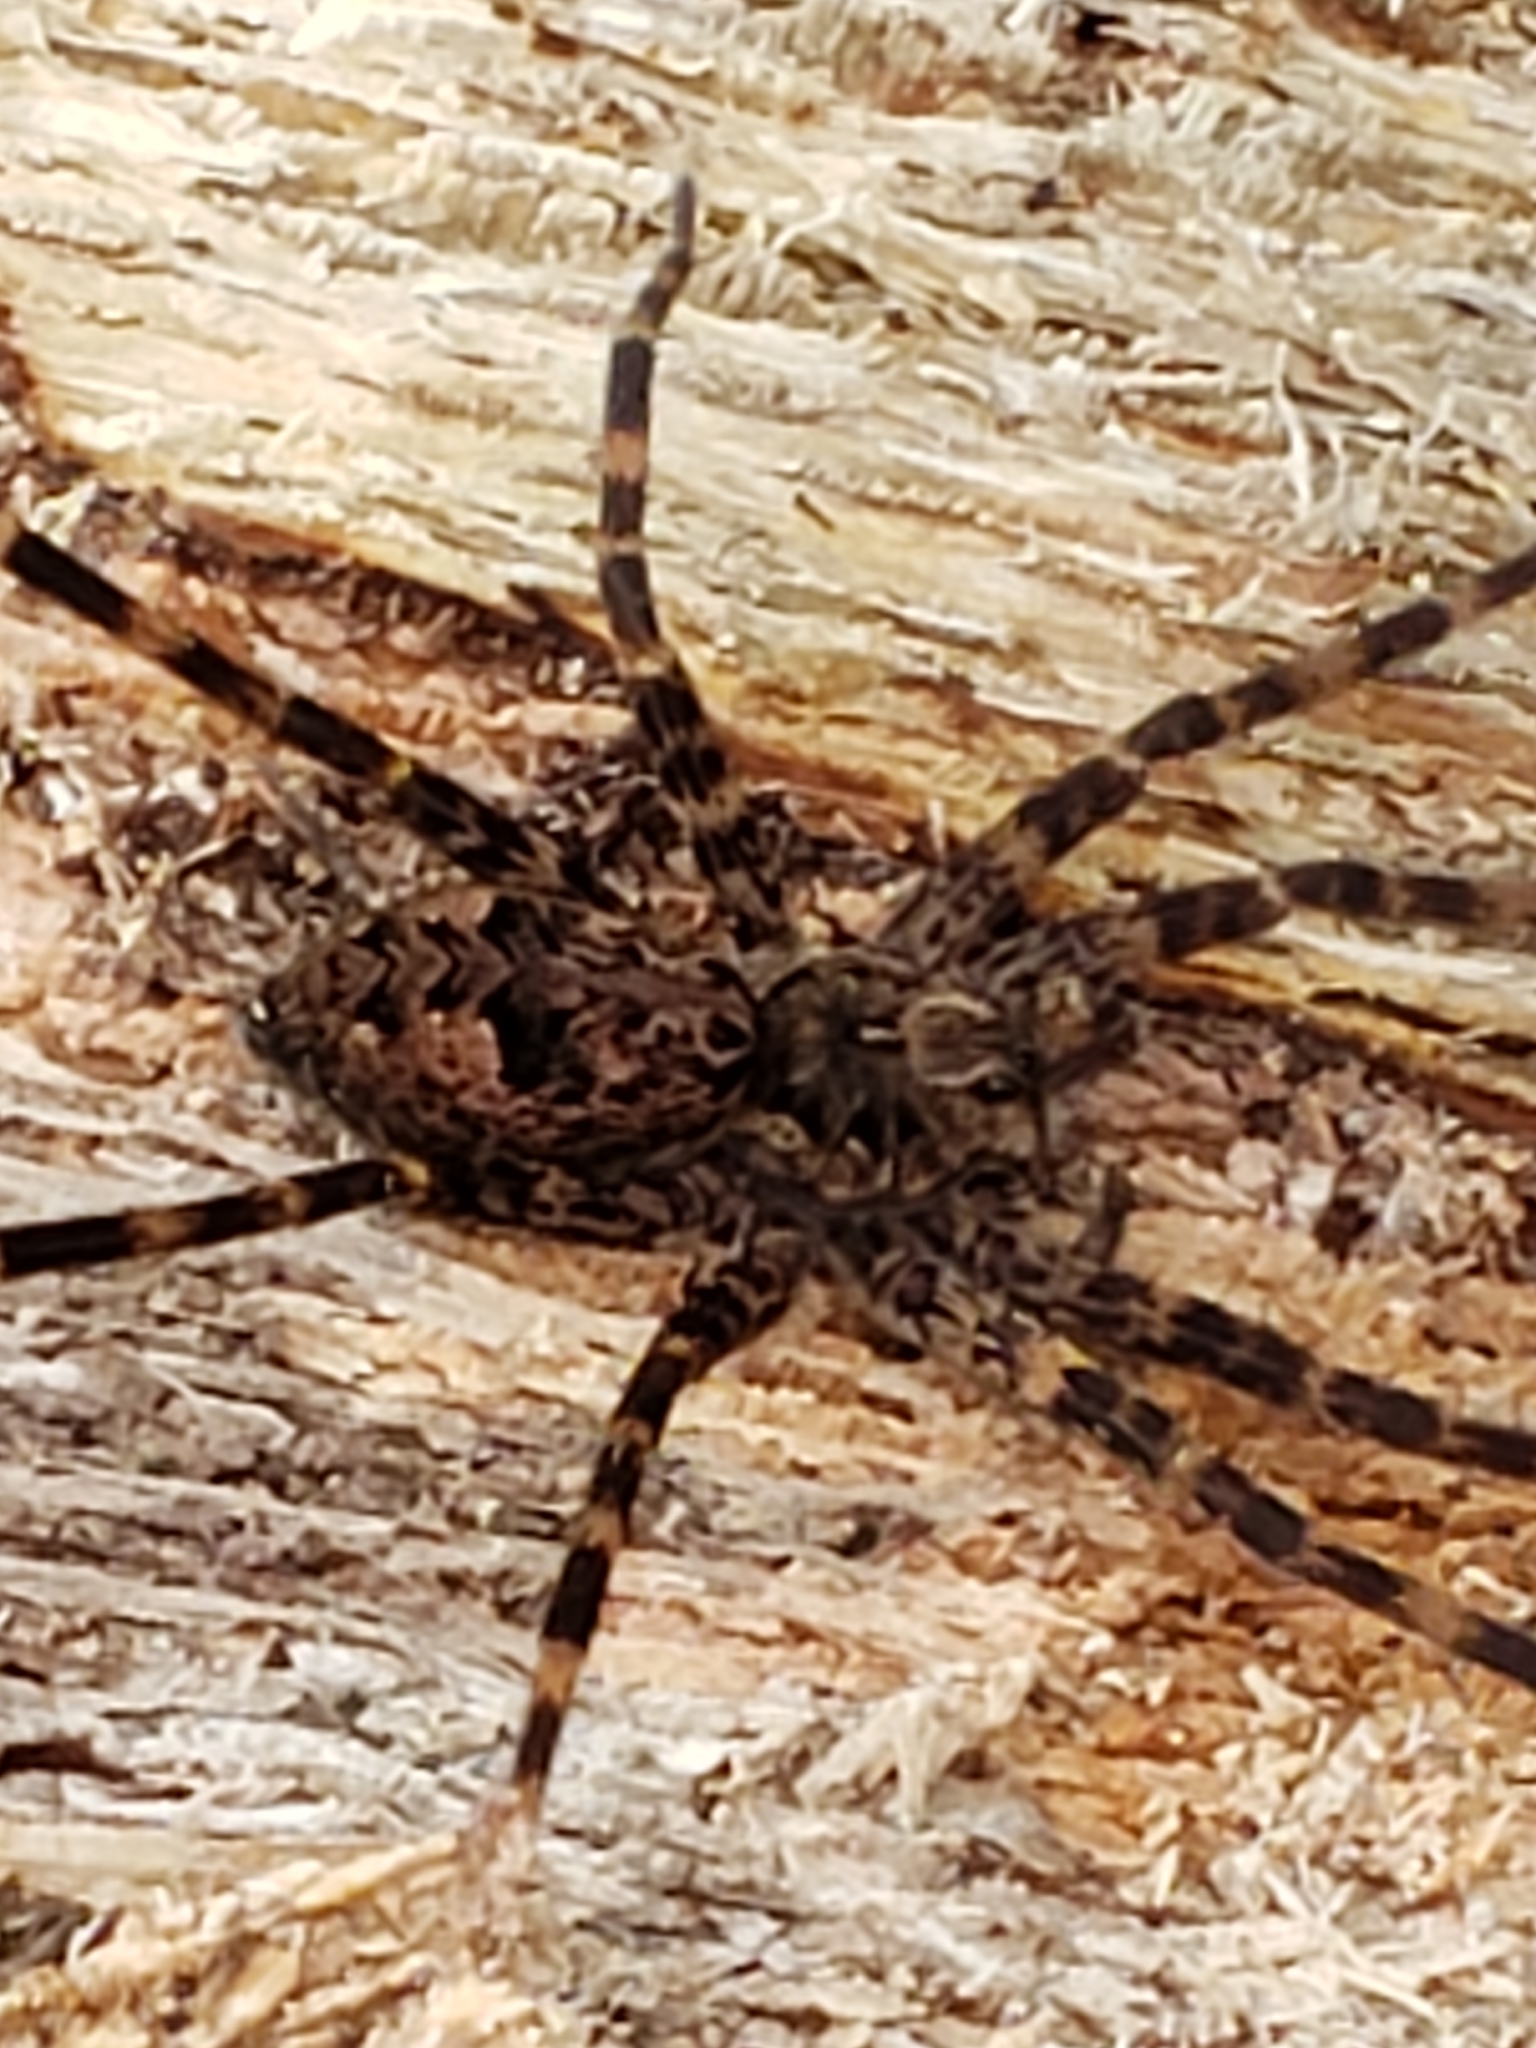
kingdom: Animalia
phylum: Arthropoda
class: Arachnida
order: Araneae
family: Pisauridae
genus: Dolomedes
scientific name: Dolomedes tenebrosus
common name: Dark fishing spider
